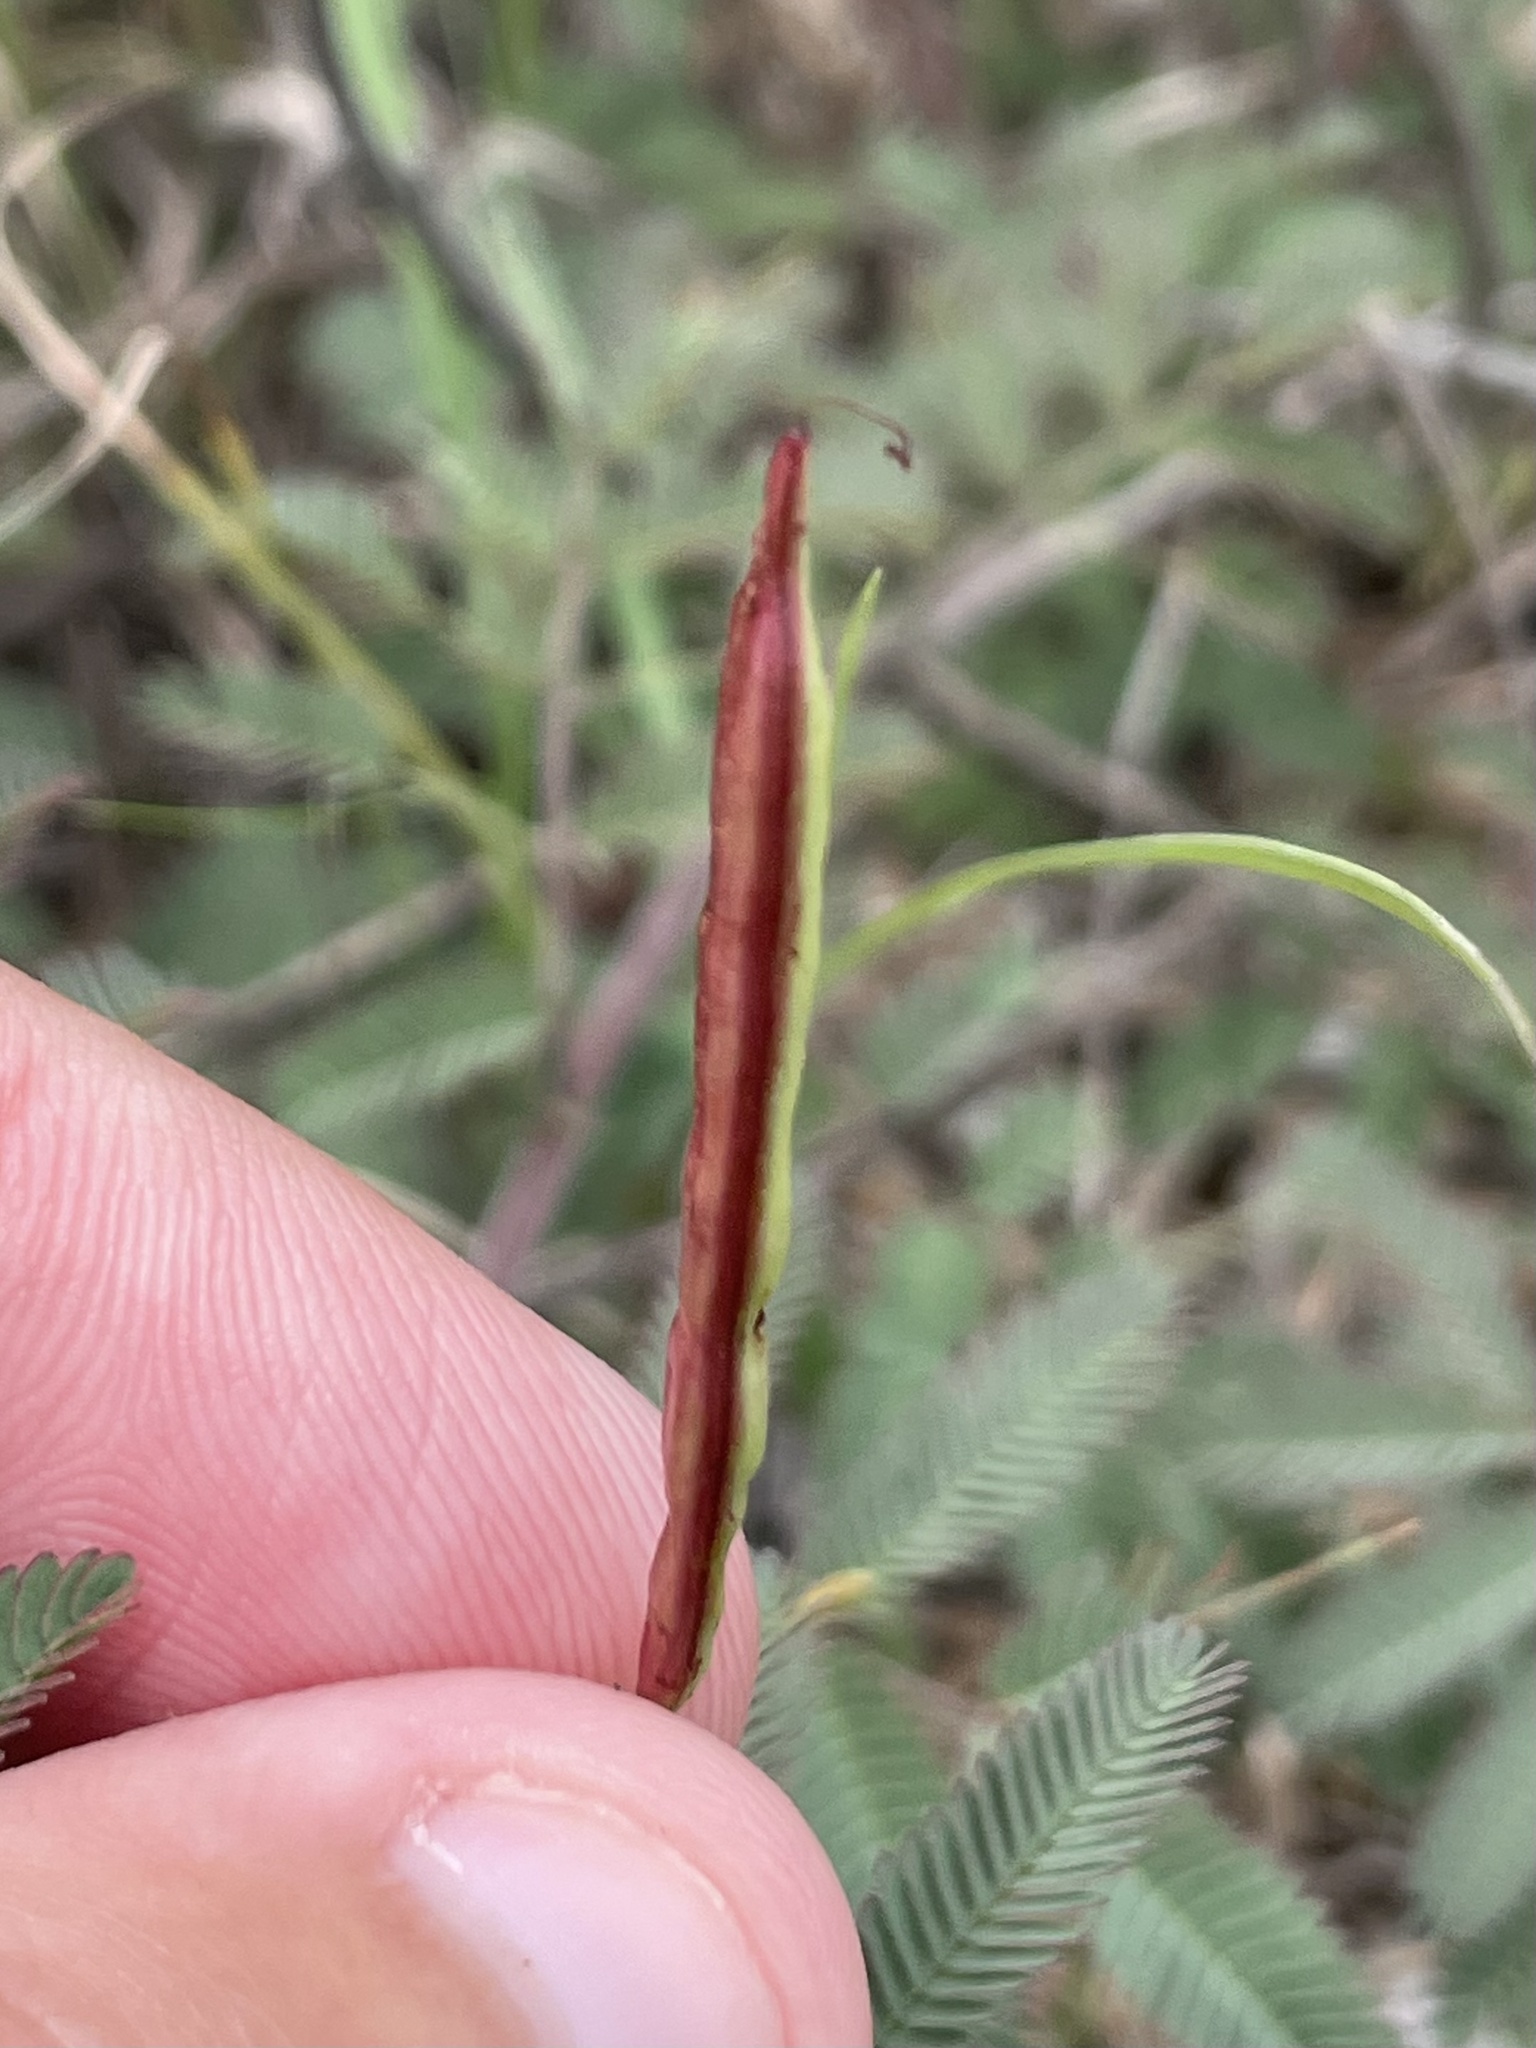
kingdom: Plantae
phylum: Tracheophyta
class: Magnoliopsida
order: Fabales
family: Fabaceae
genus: Desmanthus
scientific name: Desmanthus velutinus
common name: Velvet bundle-flower
